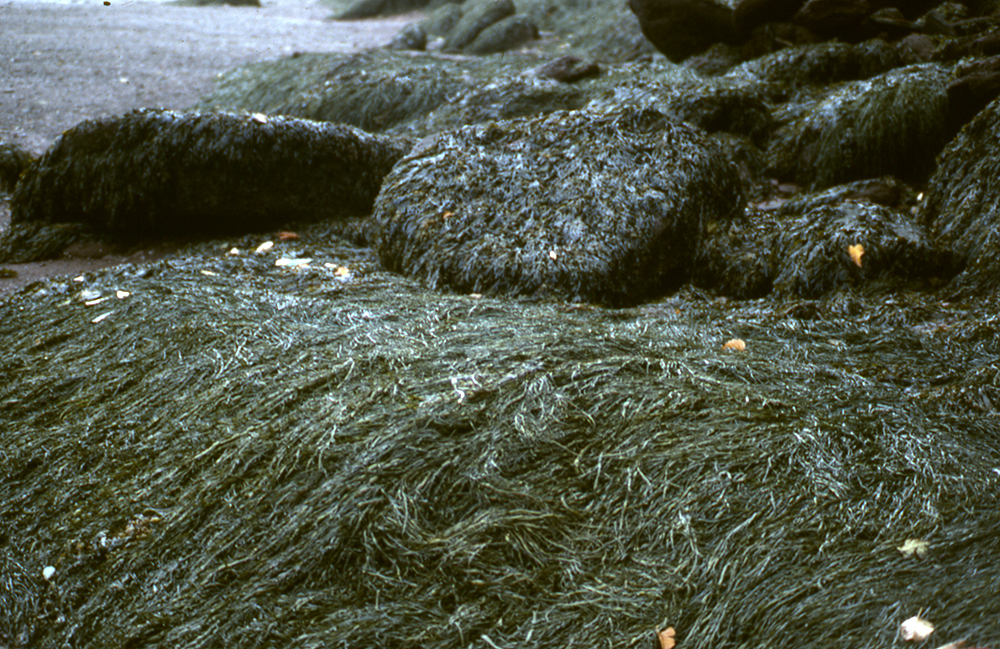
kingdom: Chromista
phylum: Ochrophyta
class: Phaeophyceae
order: Fucales
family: Fucaceae
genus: Ascophyllum
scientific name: Ascophyllum nodosum
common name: Knotted wrack
